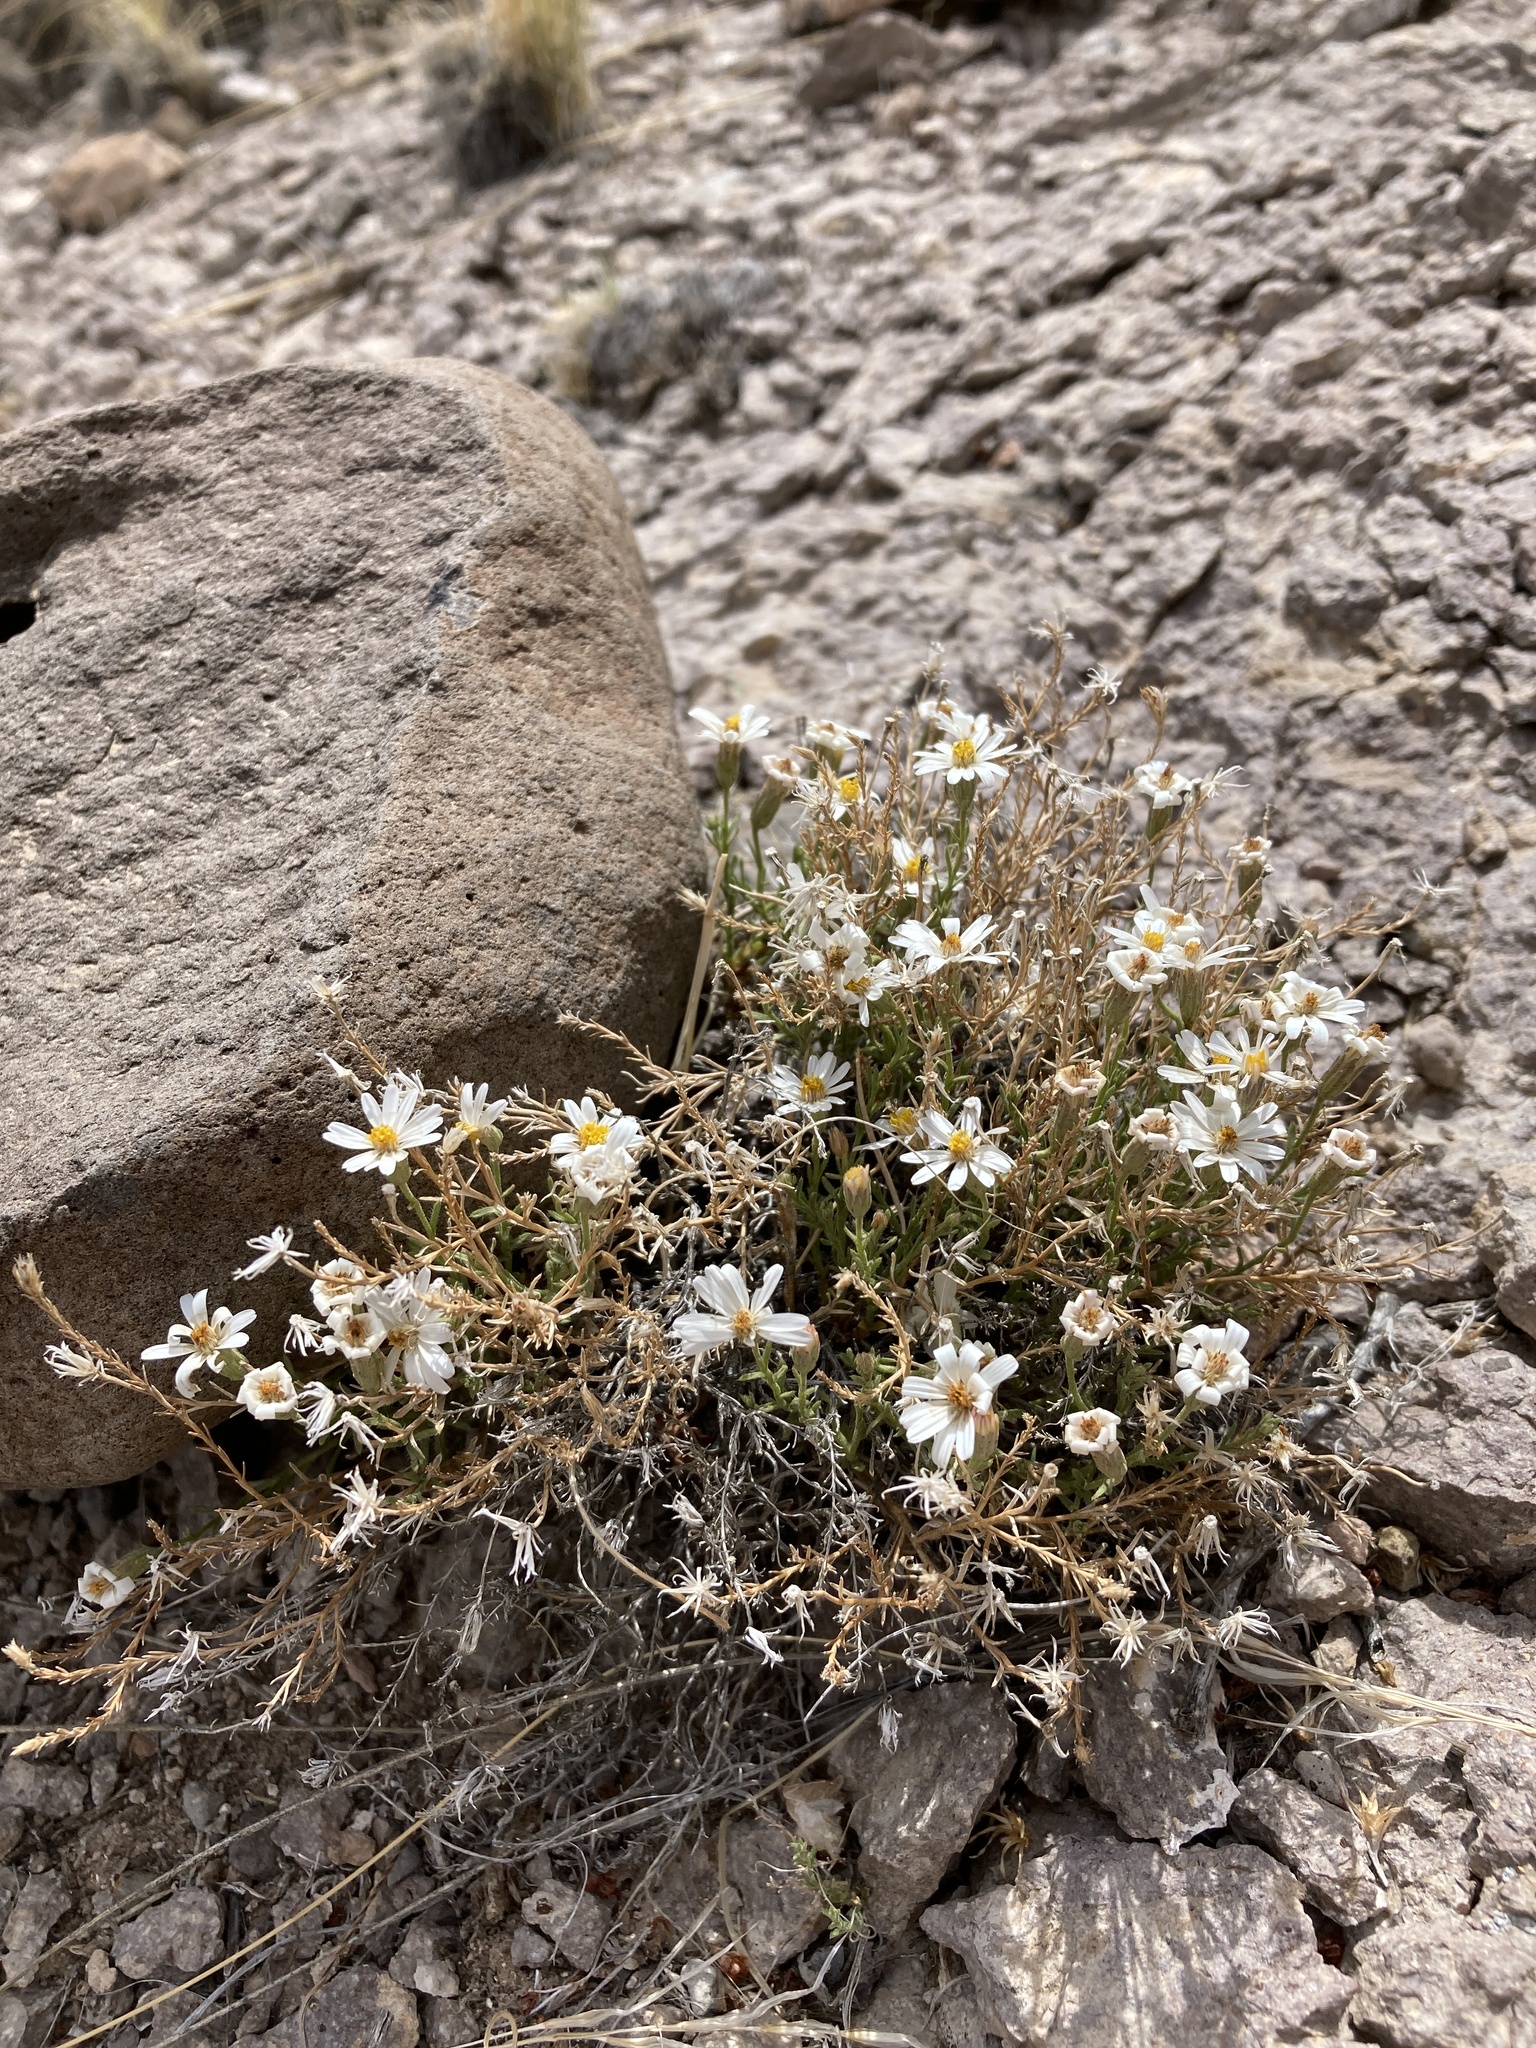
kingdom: Plantae
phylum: Tracheophyta
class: Magnoliopsida
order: Asterales
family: Asteraceae
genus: Chaetopappa
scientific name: Chaetopappa ericoides
